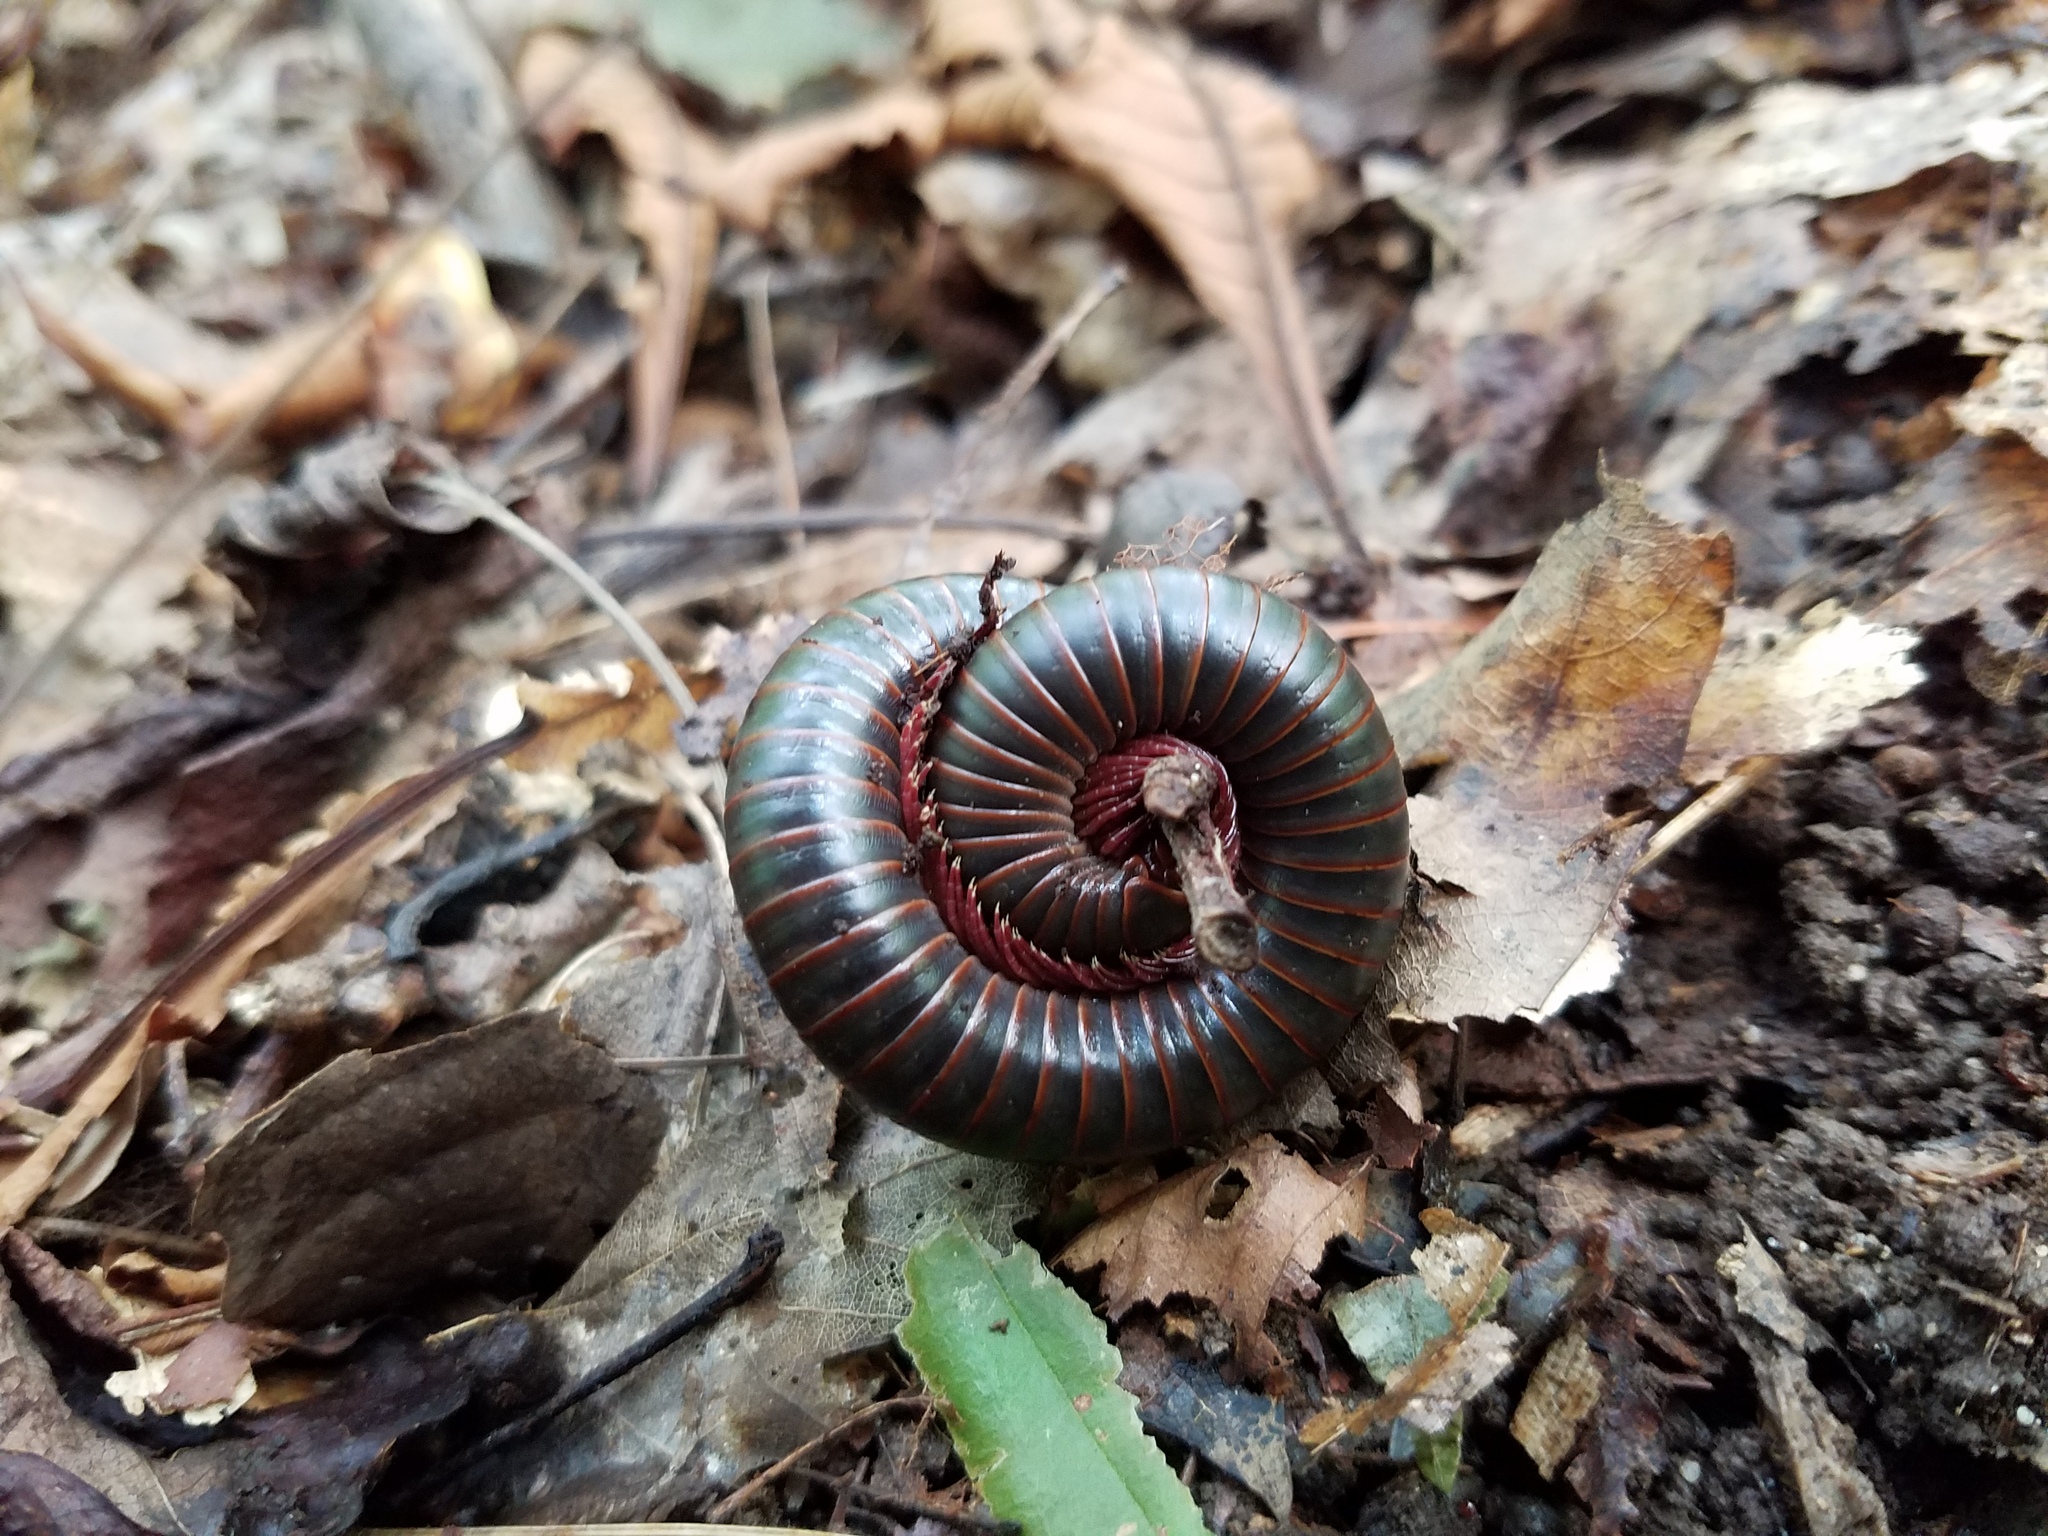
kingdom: Animalia
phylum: Arthropoda
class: Diplopoda
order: Spirobolida
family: Spirobolidae
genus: Narceus
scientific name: Narceus
